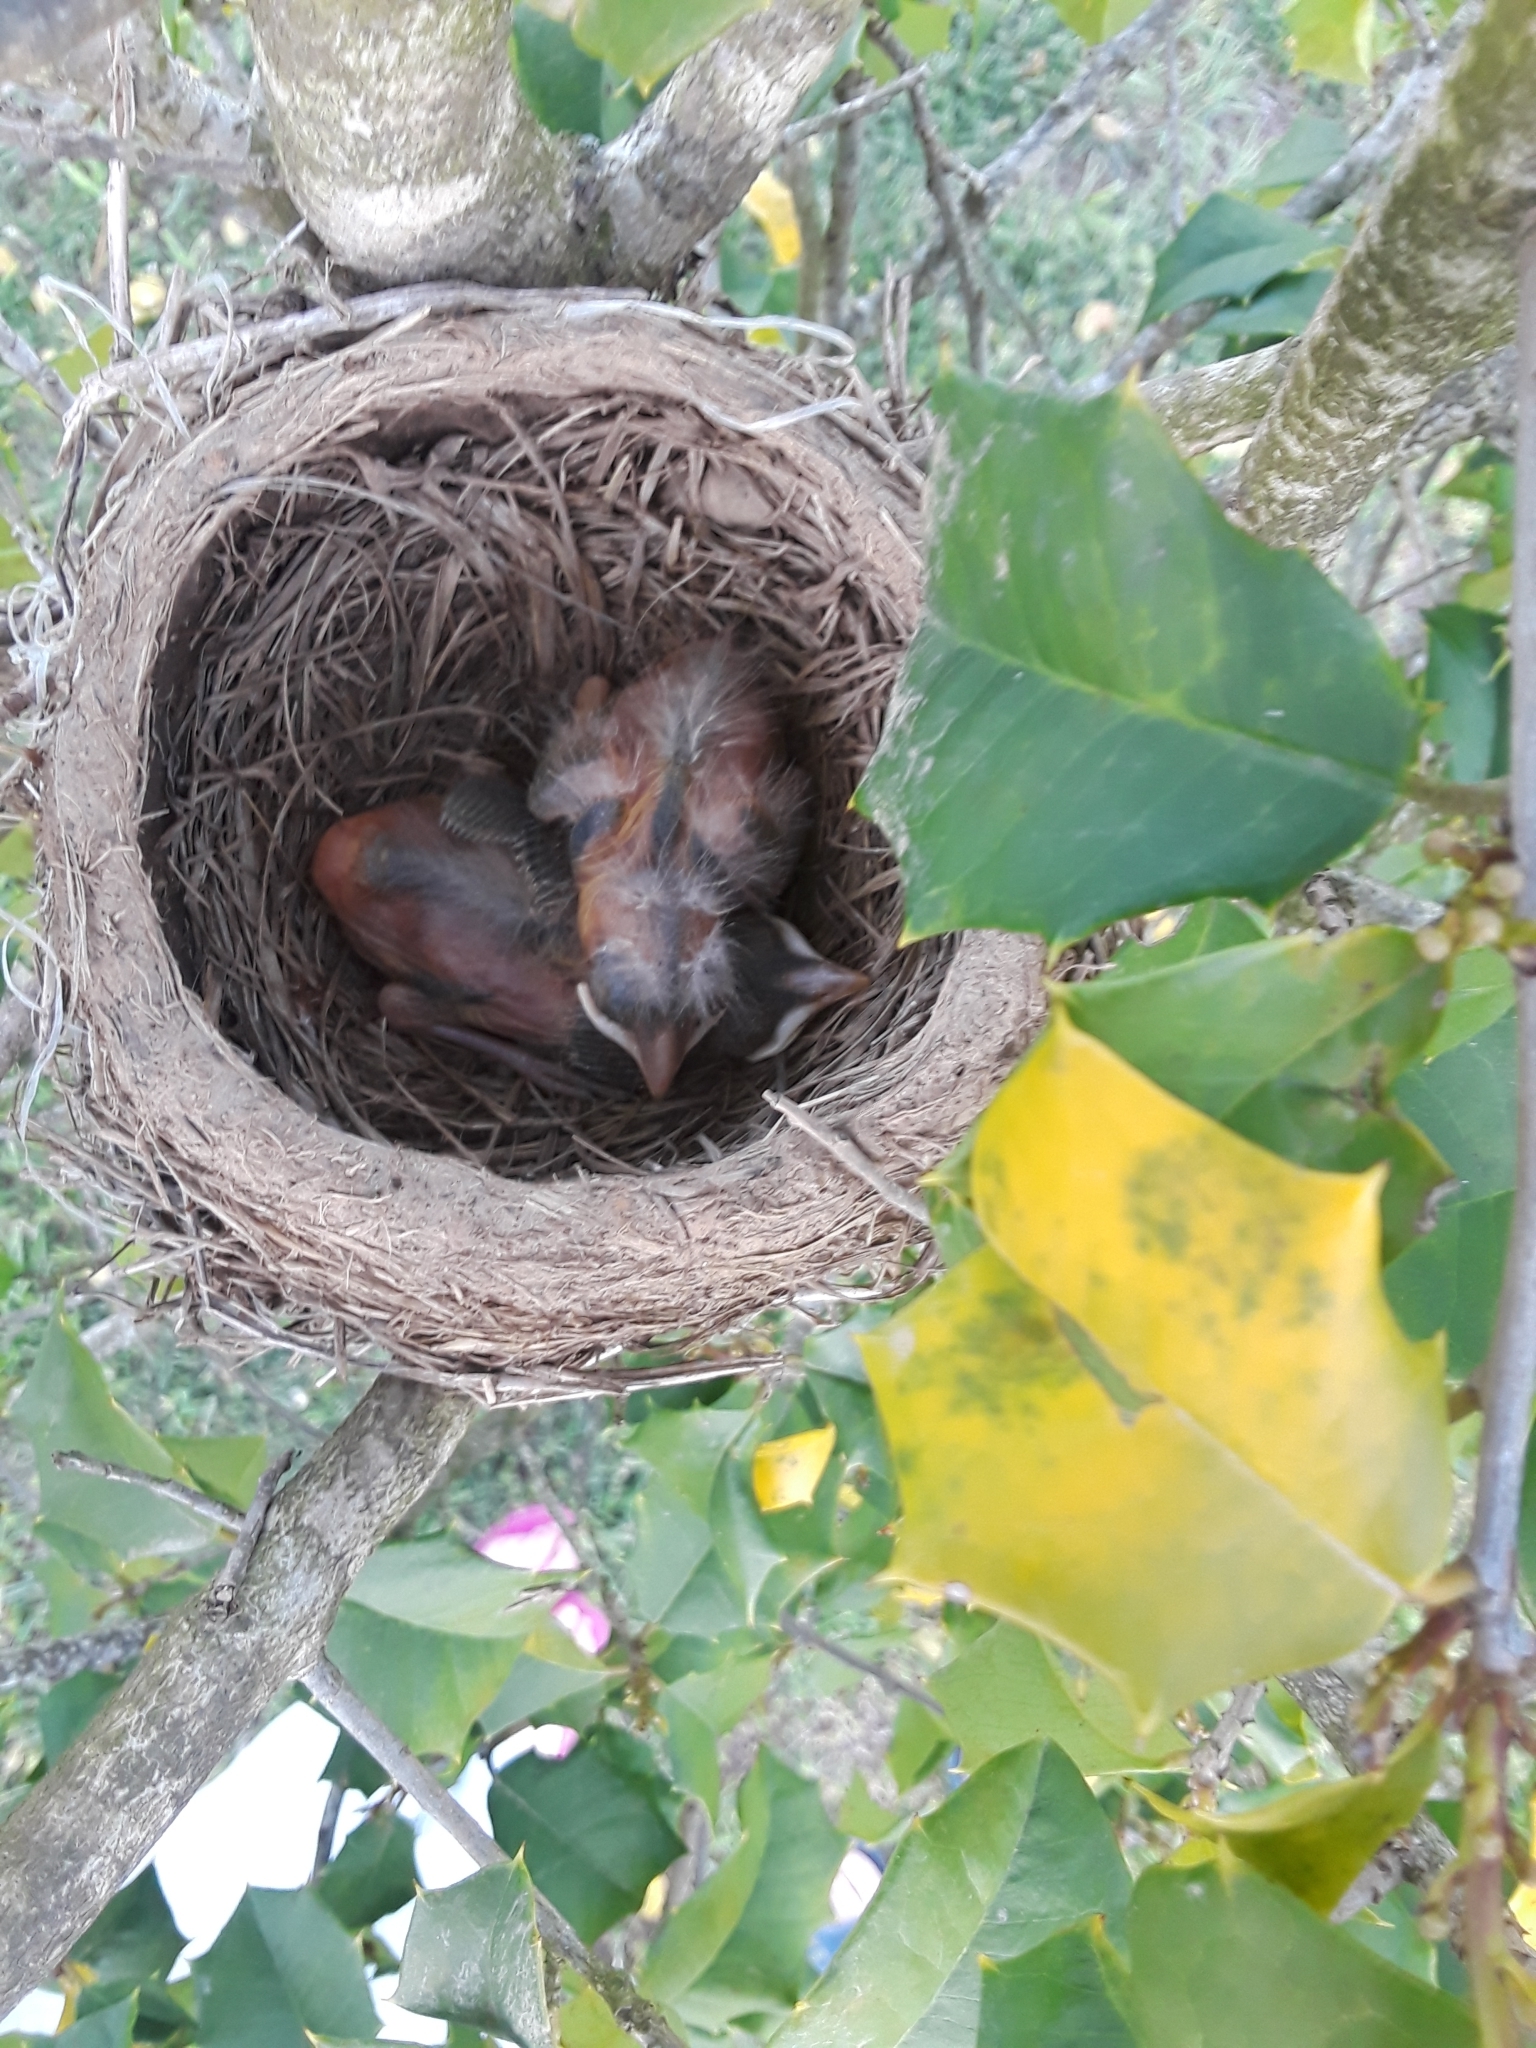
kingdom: Animalia
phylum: Chordata
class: Aves
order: Passeriformes
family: Turdidae
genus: Turdus
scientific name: Turdus migratorius
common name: American robin
